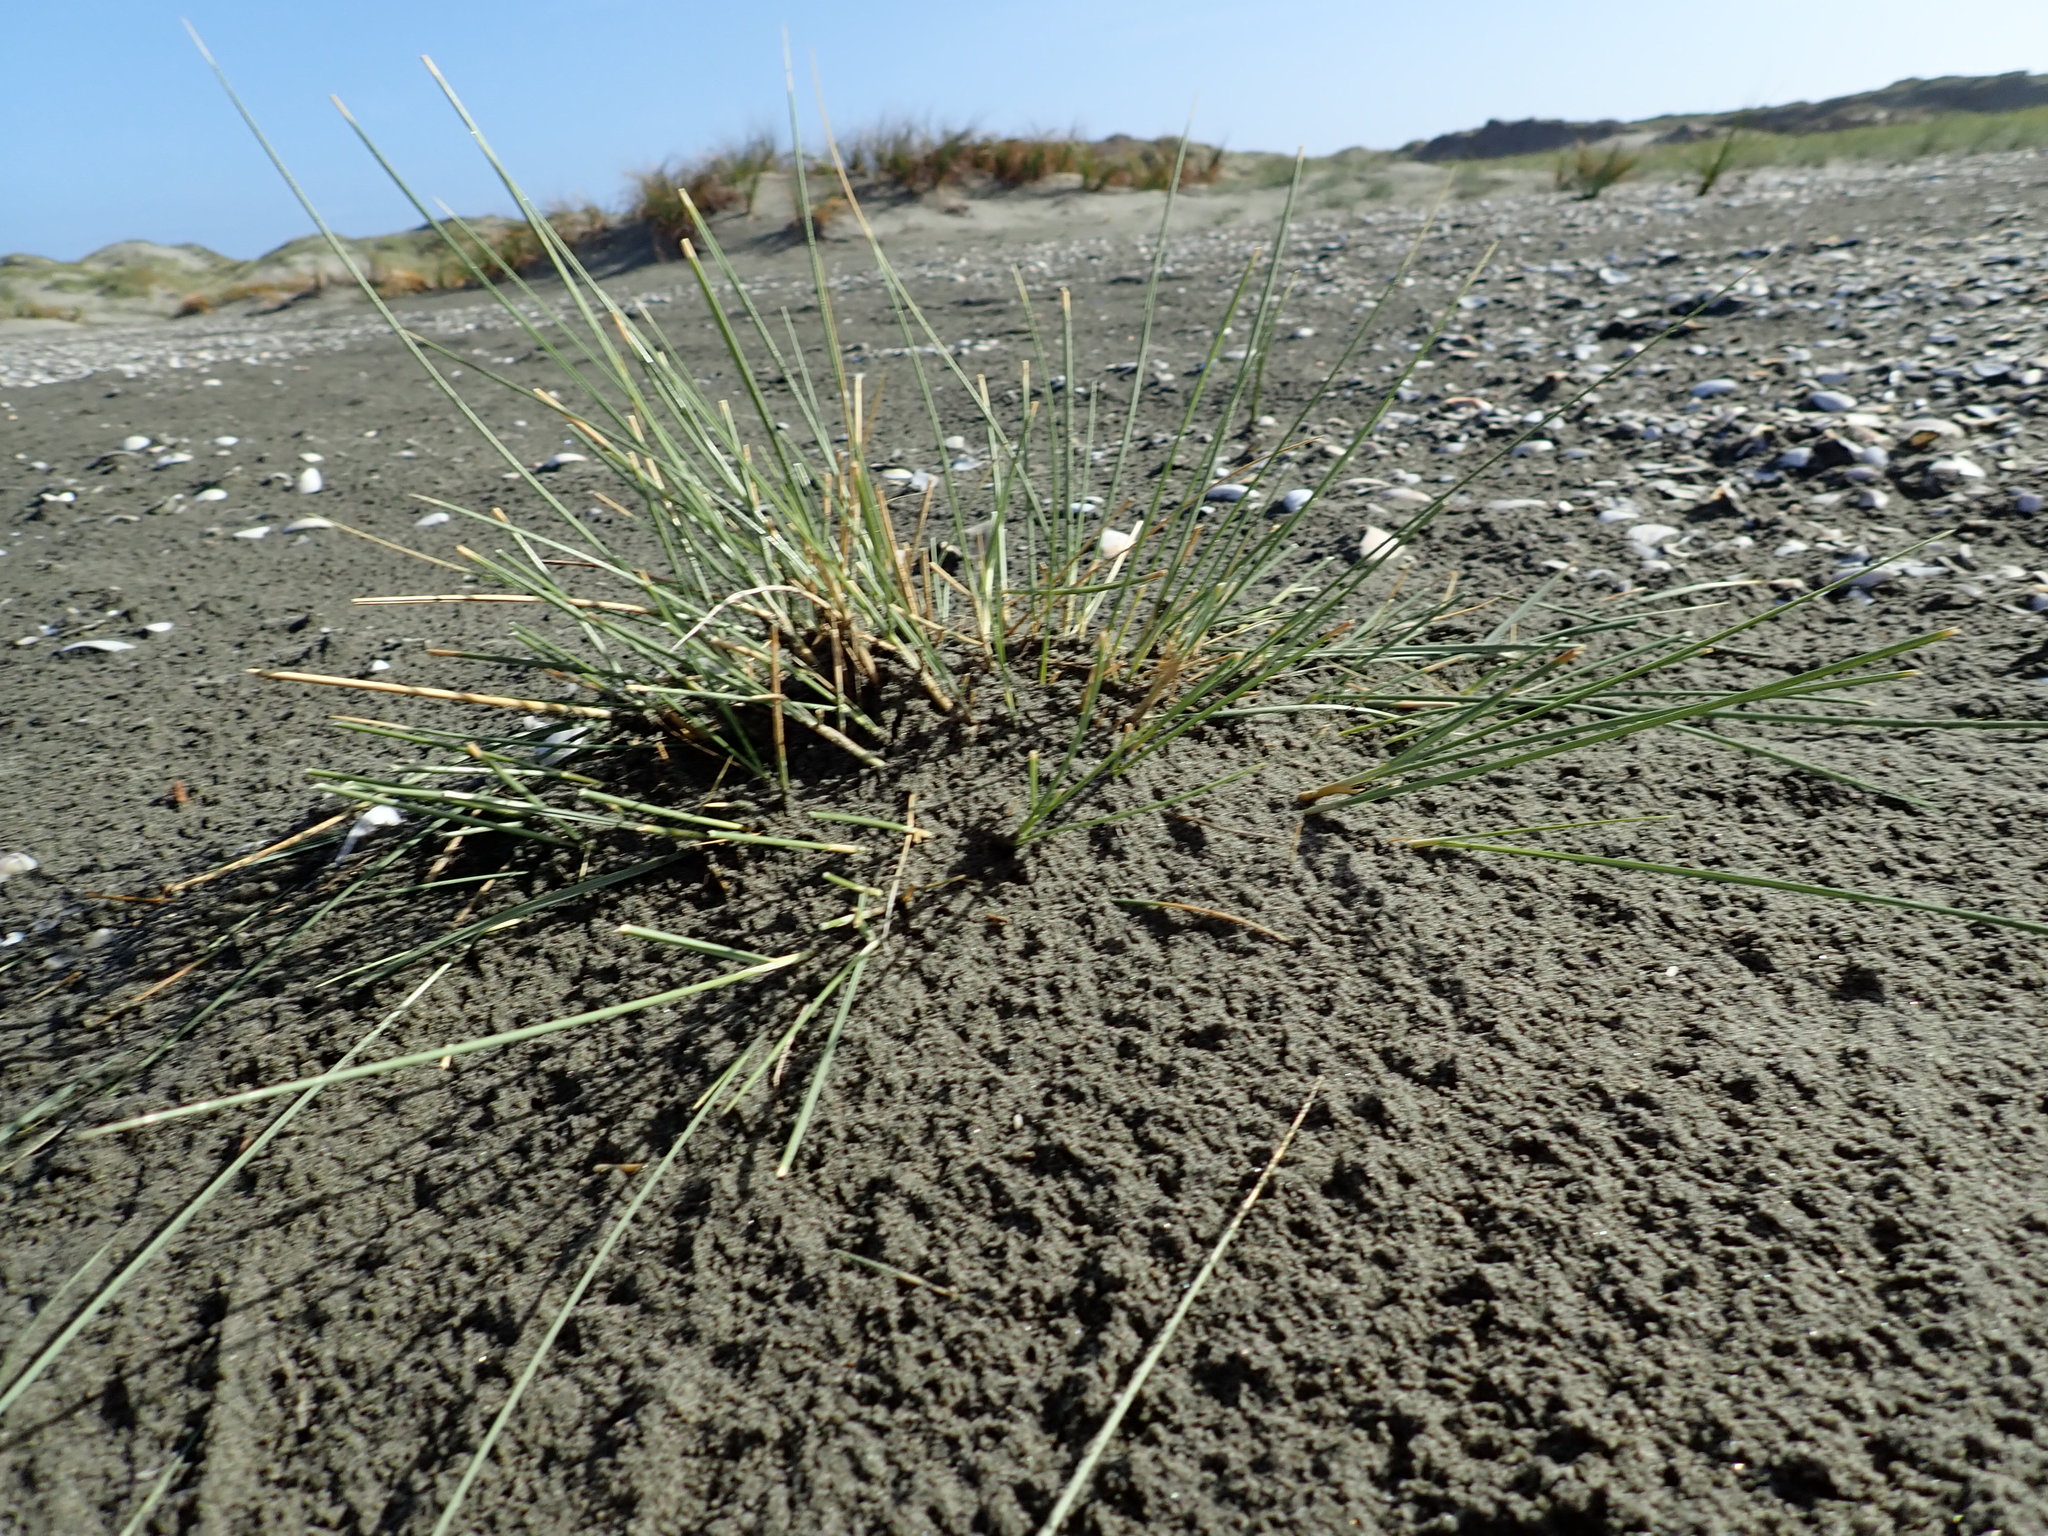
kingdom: Plantae
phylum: Tracheophyta
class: Liliopsida
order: Poales
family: Poaceae
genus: Calamagrostis
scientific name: Calamagrostis arenaria
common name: European beachgrass
